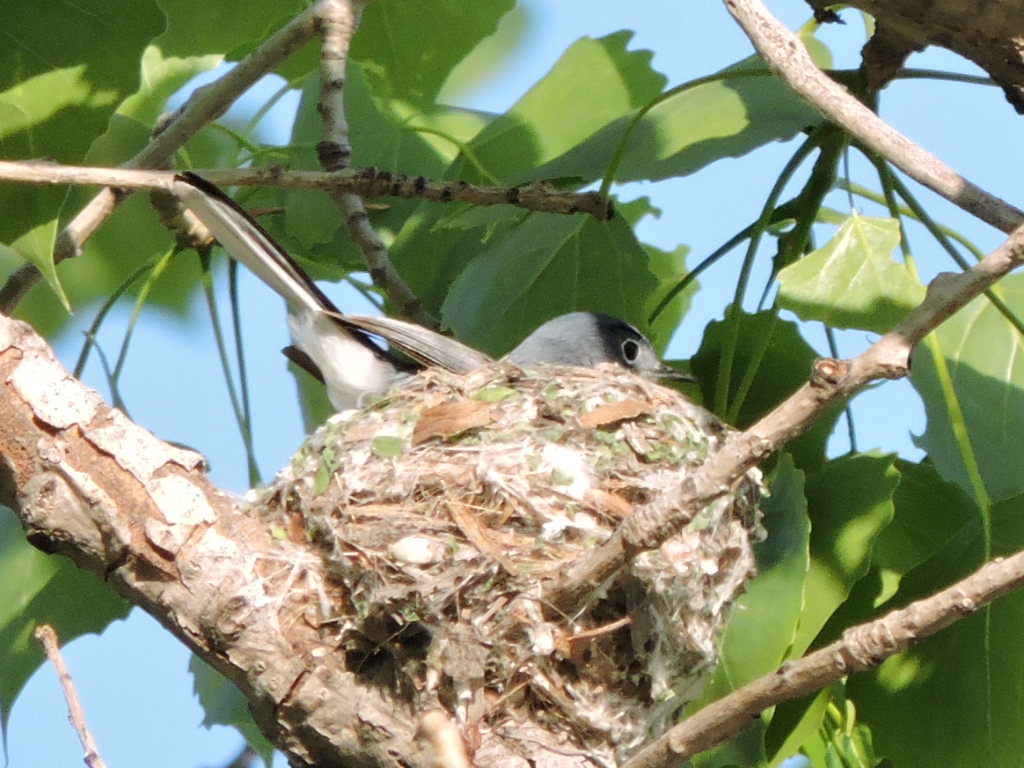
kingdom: Animalia
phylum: Chordata
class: Aves
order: Passeriformes
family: Polioptilidae
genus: Polioptila
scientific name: Polioptila caerulea
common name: Blue-gray gnatcatcher
